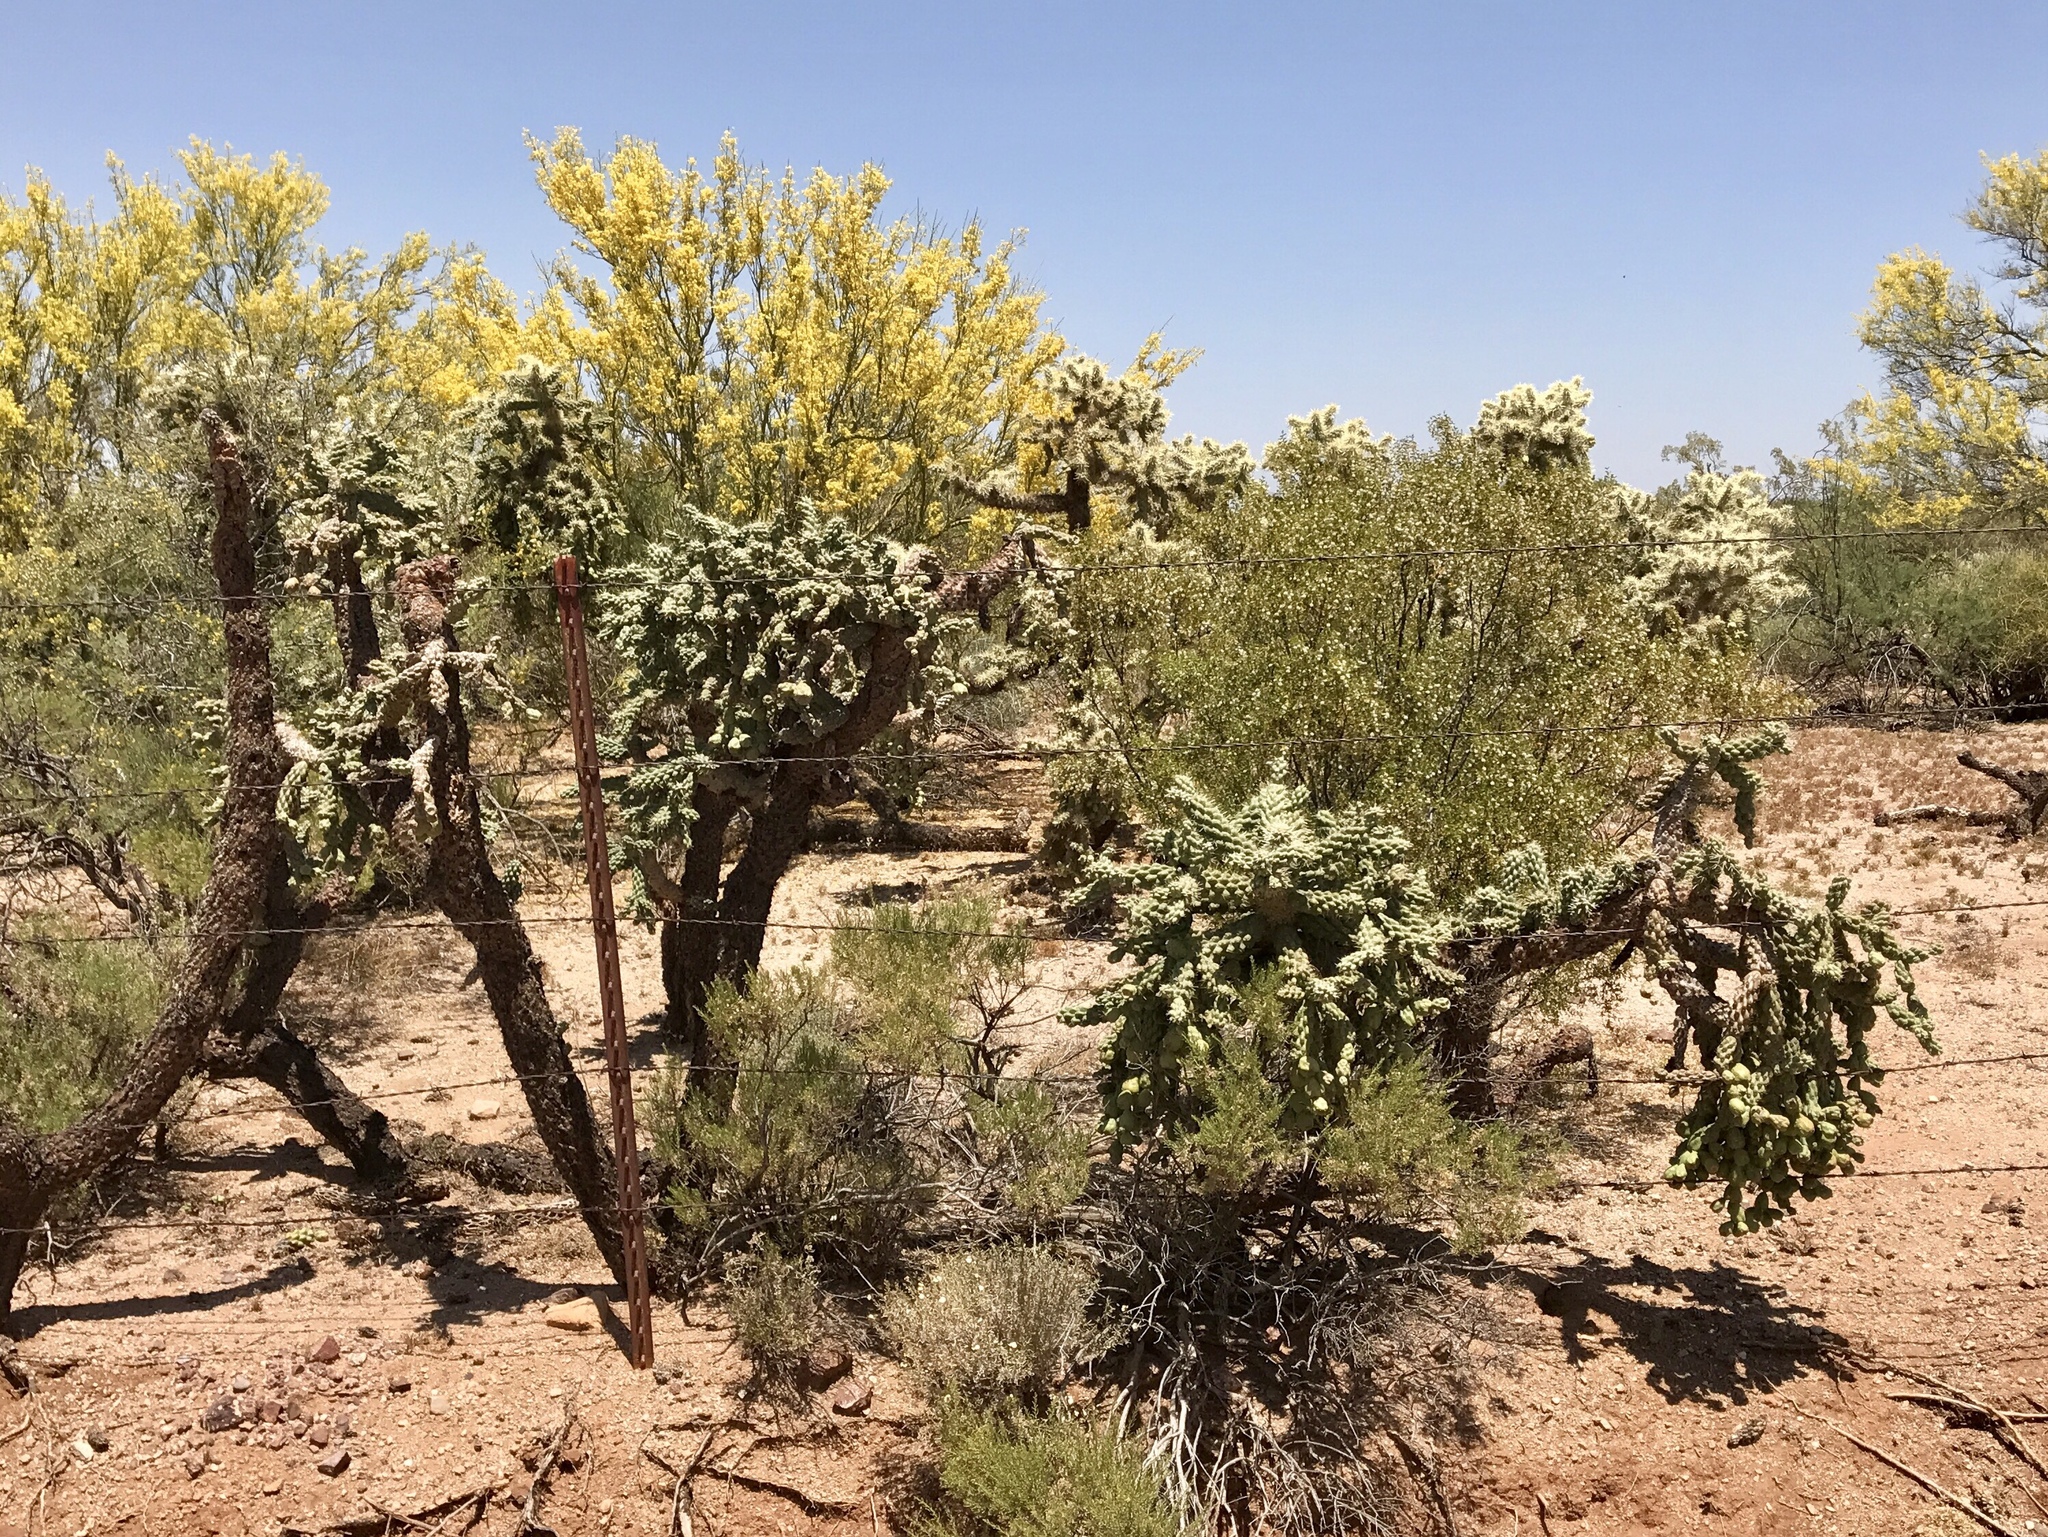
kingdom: Plantae
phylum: Tracheophyta
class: Magnoliopsida
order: Caryophyllales
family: Cactaceae
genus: Cylindropuntia
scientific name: Cylindropuntia fulgida
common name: Jumping cholla
